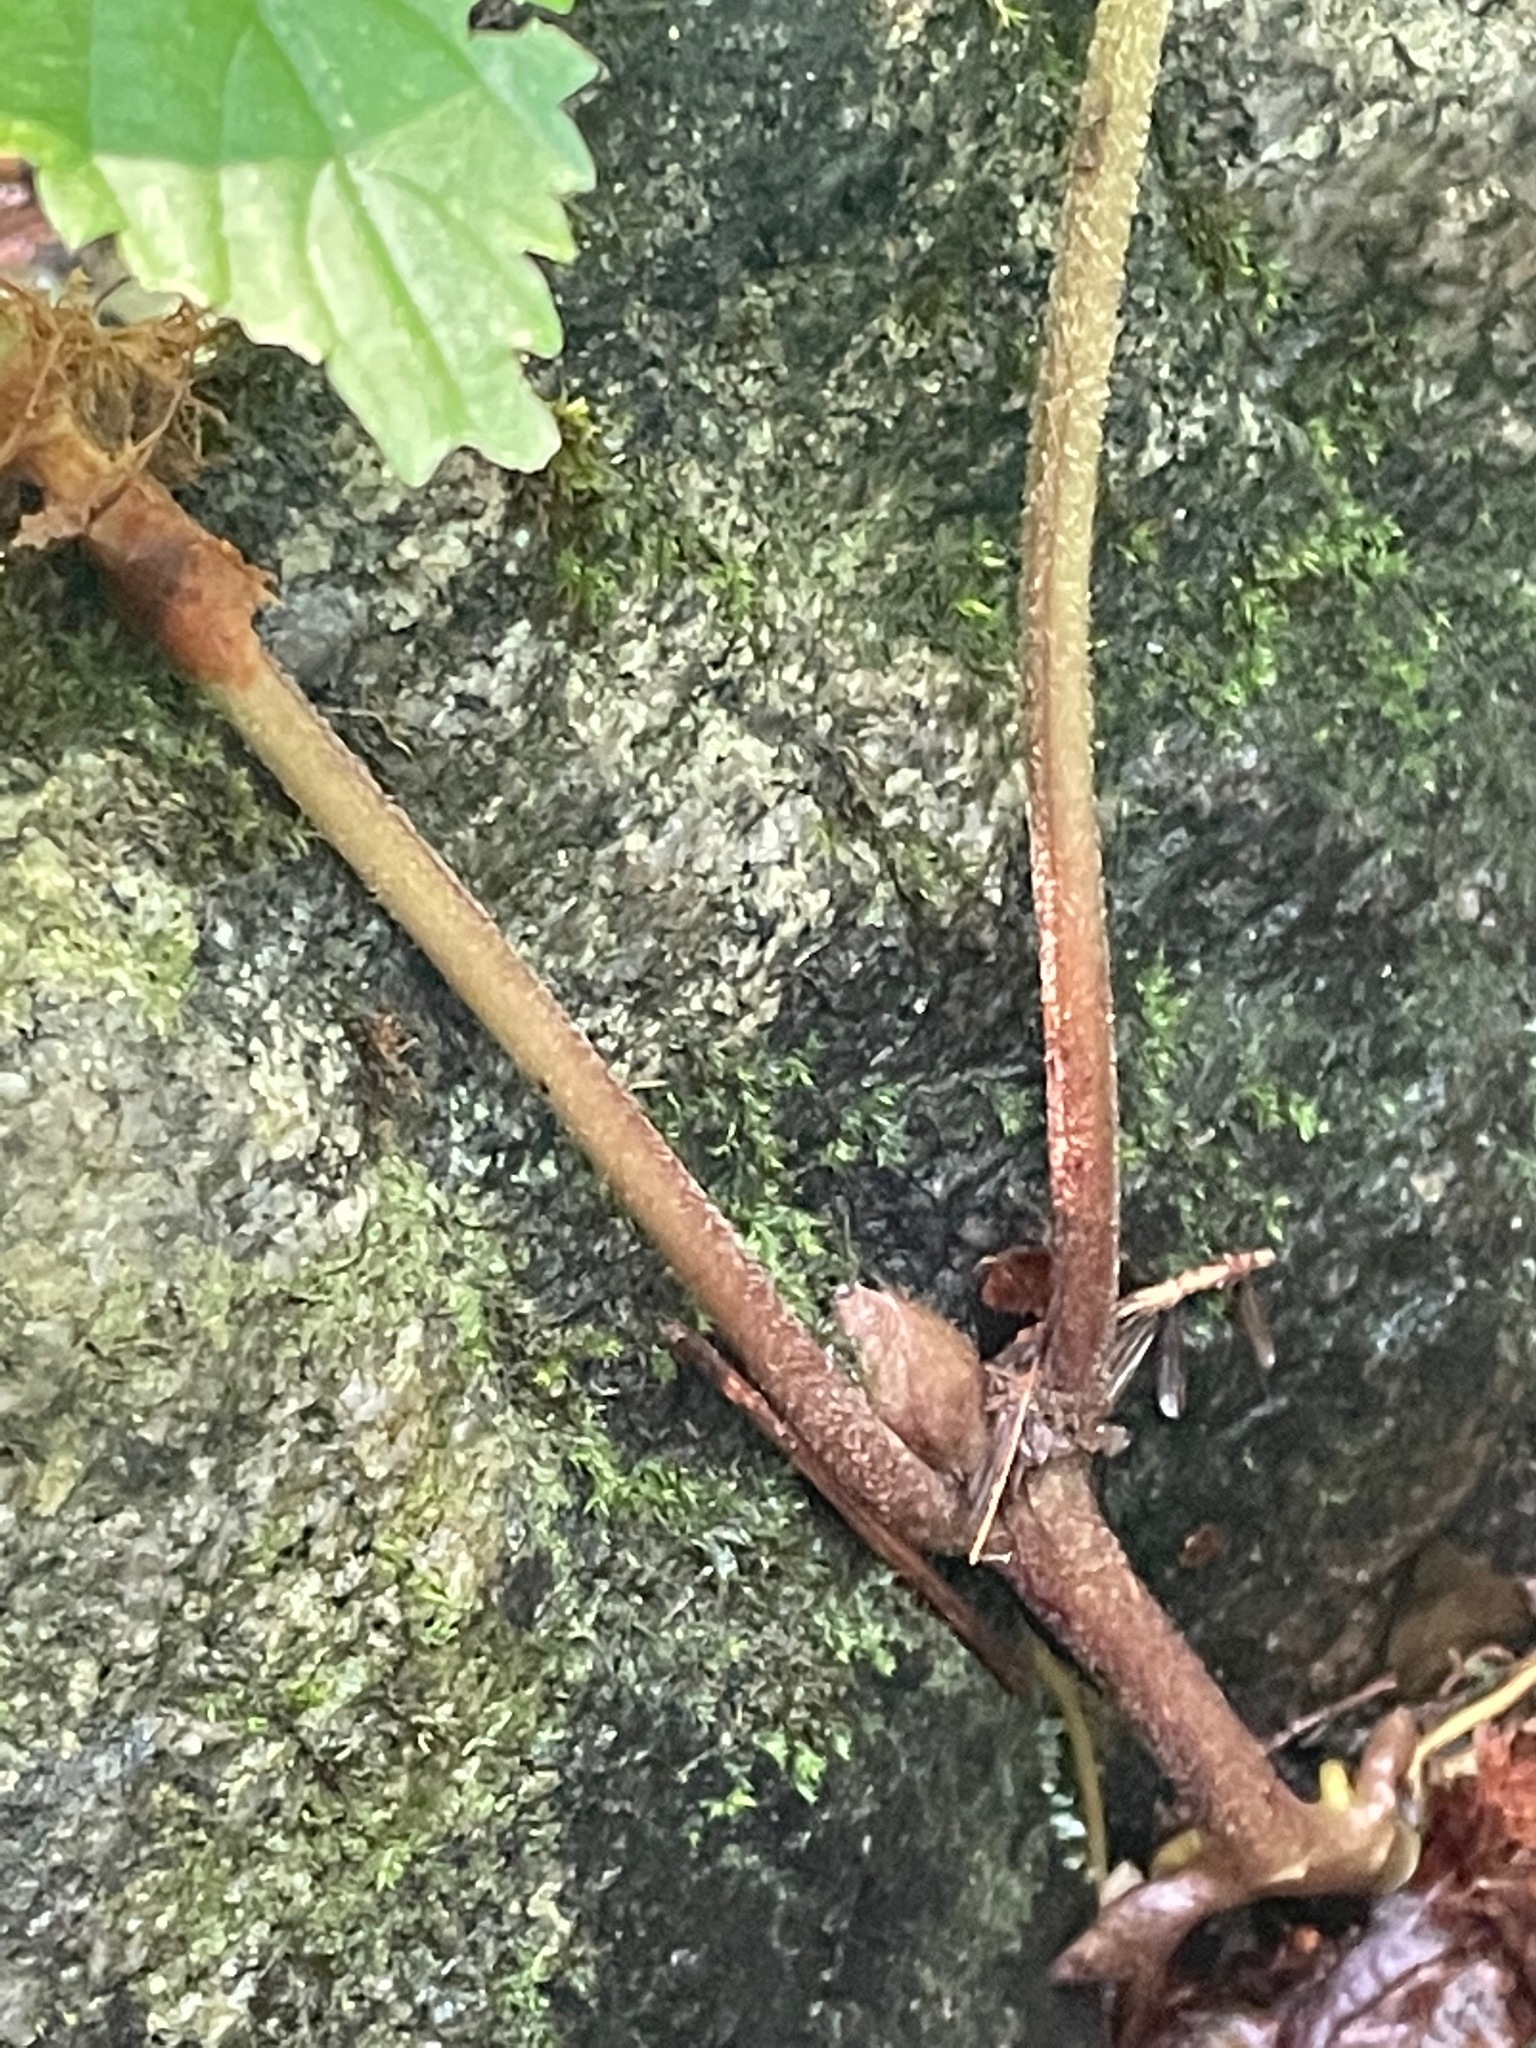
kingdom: Plantae
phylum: Tracheophyta
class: Magnoliopsida
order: Piperales
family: Aristolochiaceae
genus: Asarum
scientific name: Asarum canadense
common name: Wild ginger
